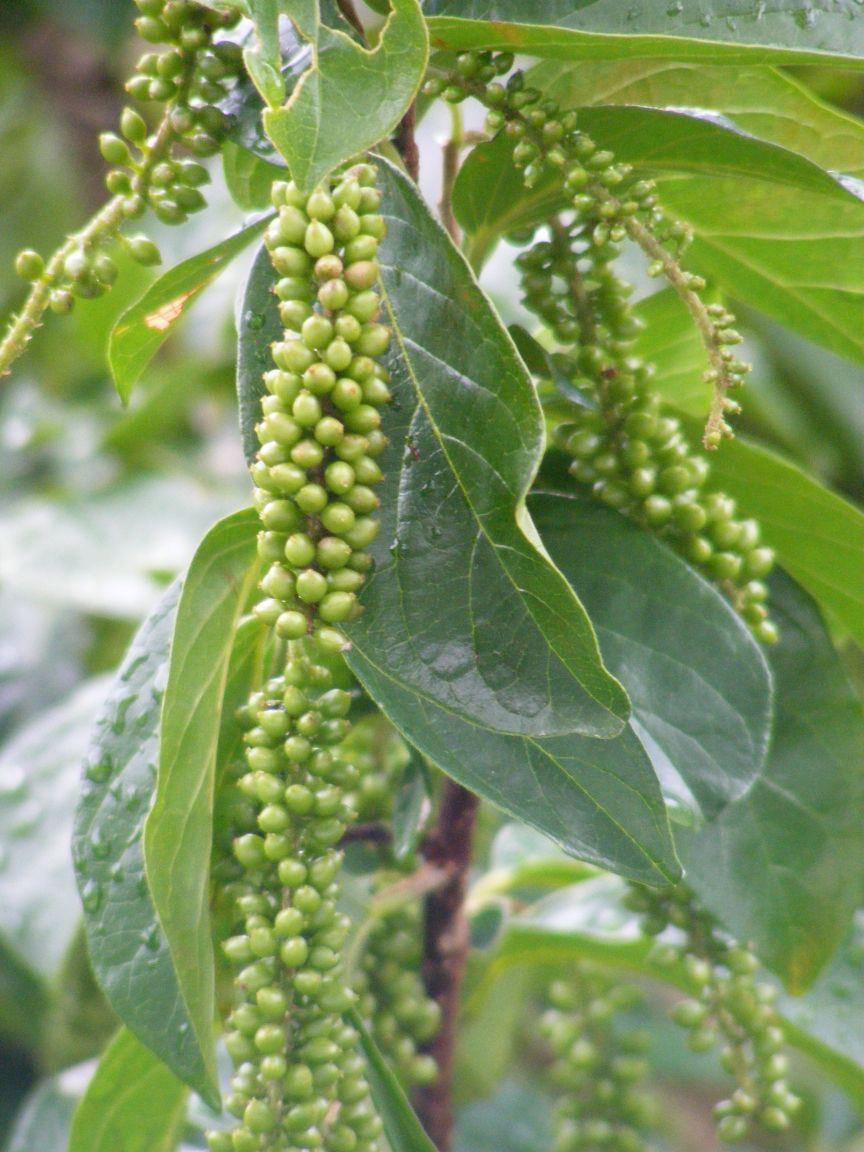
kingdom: Plantae
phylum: Tracheophyta
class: Magnoliopsida
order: Malpighiales
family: Phyllanthaceae
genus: Antidesma
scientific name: Antidesma venosum
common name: Tassel-berry
